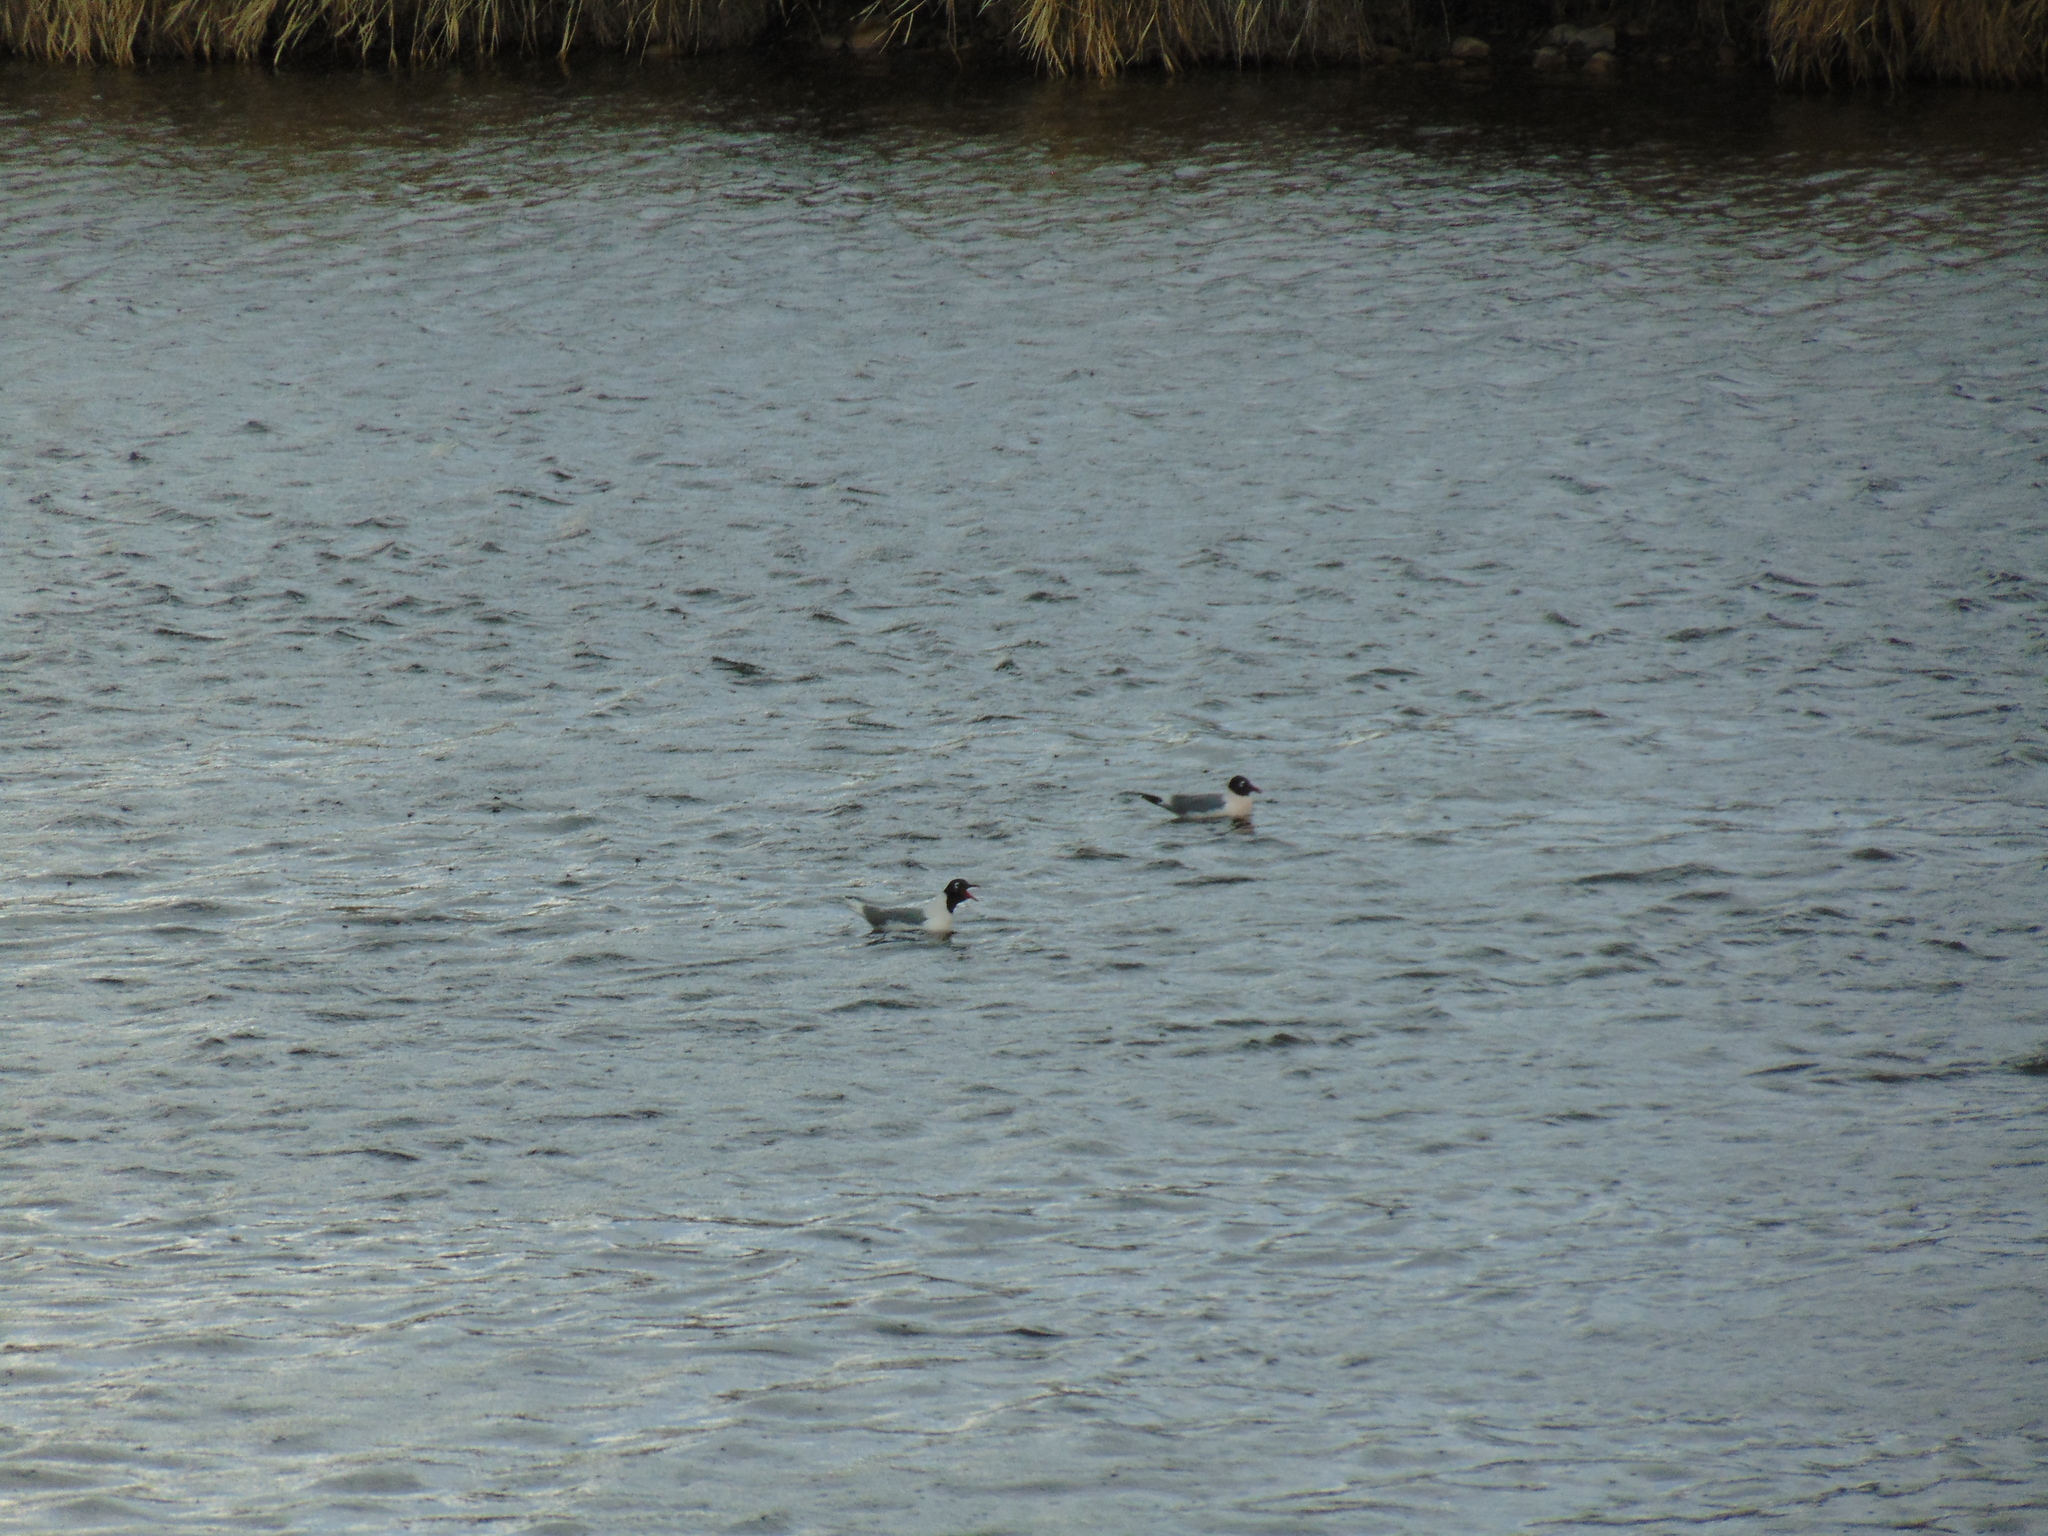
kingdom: Animalia
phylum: Chordata
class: Aves
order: Charadriiformes
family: Laridae
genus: Leucophaeus
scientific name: Leucophaeus pipixcan
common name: Franklin's gull
